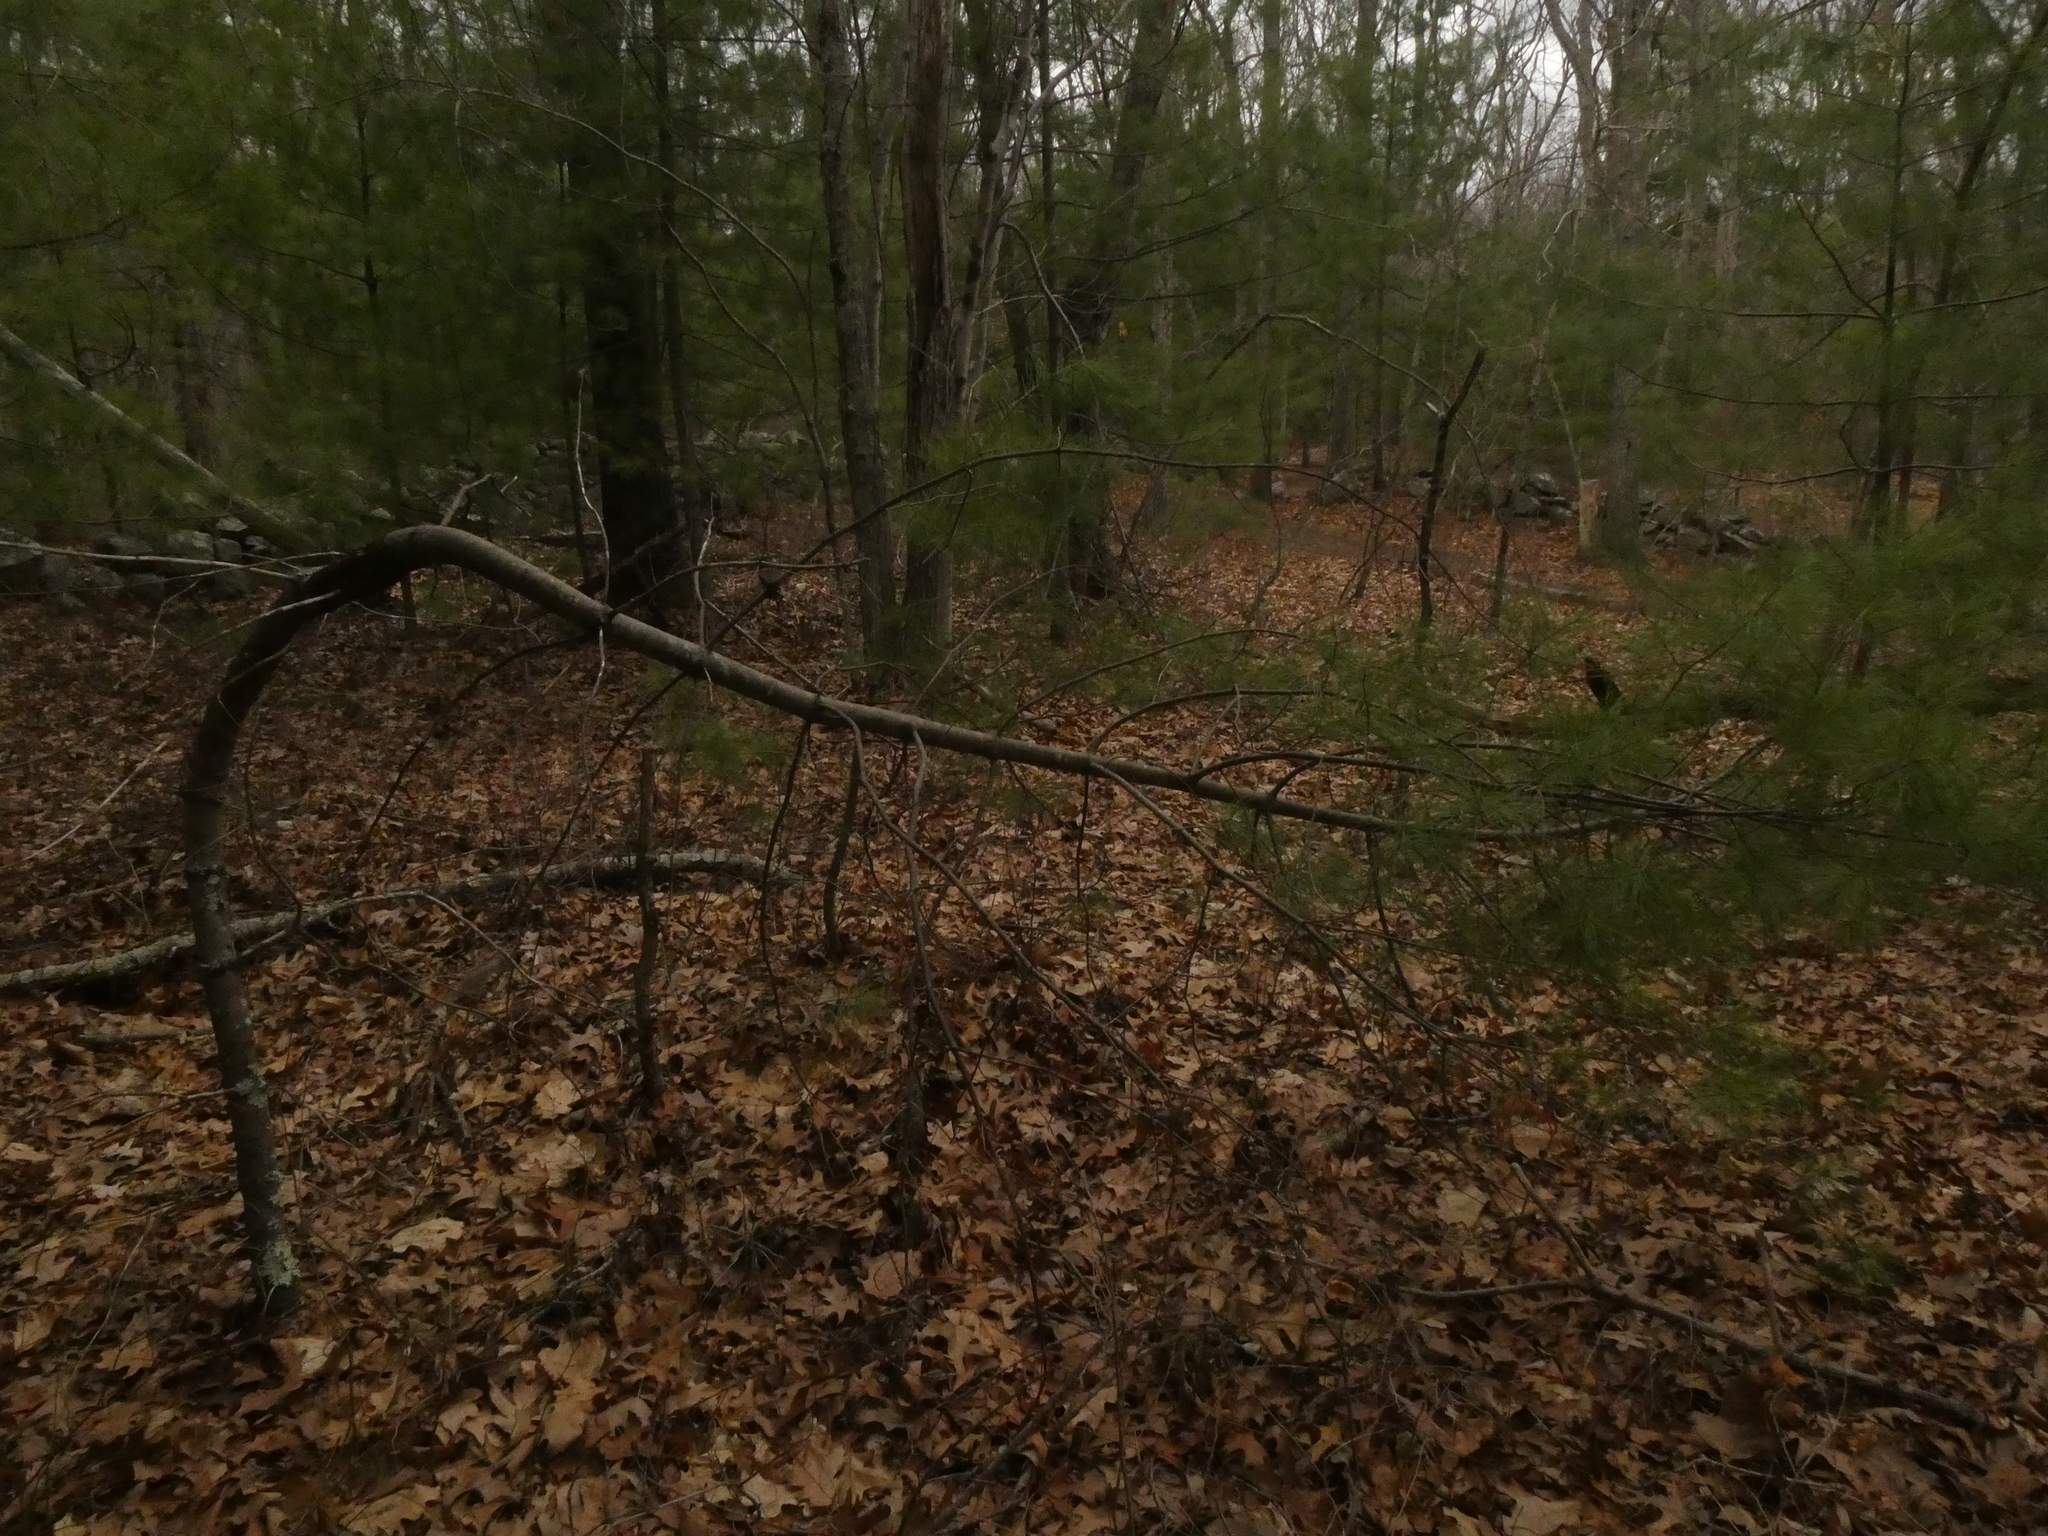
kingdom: Plantae
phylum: Tracheophyta
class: Pinopsida
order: Pinales
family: Pinaceae
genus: Pinus
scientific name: Pinus strobus
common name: Weymouth pine
